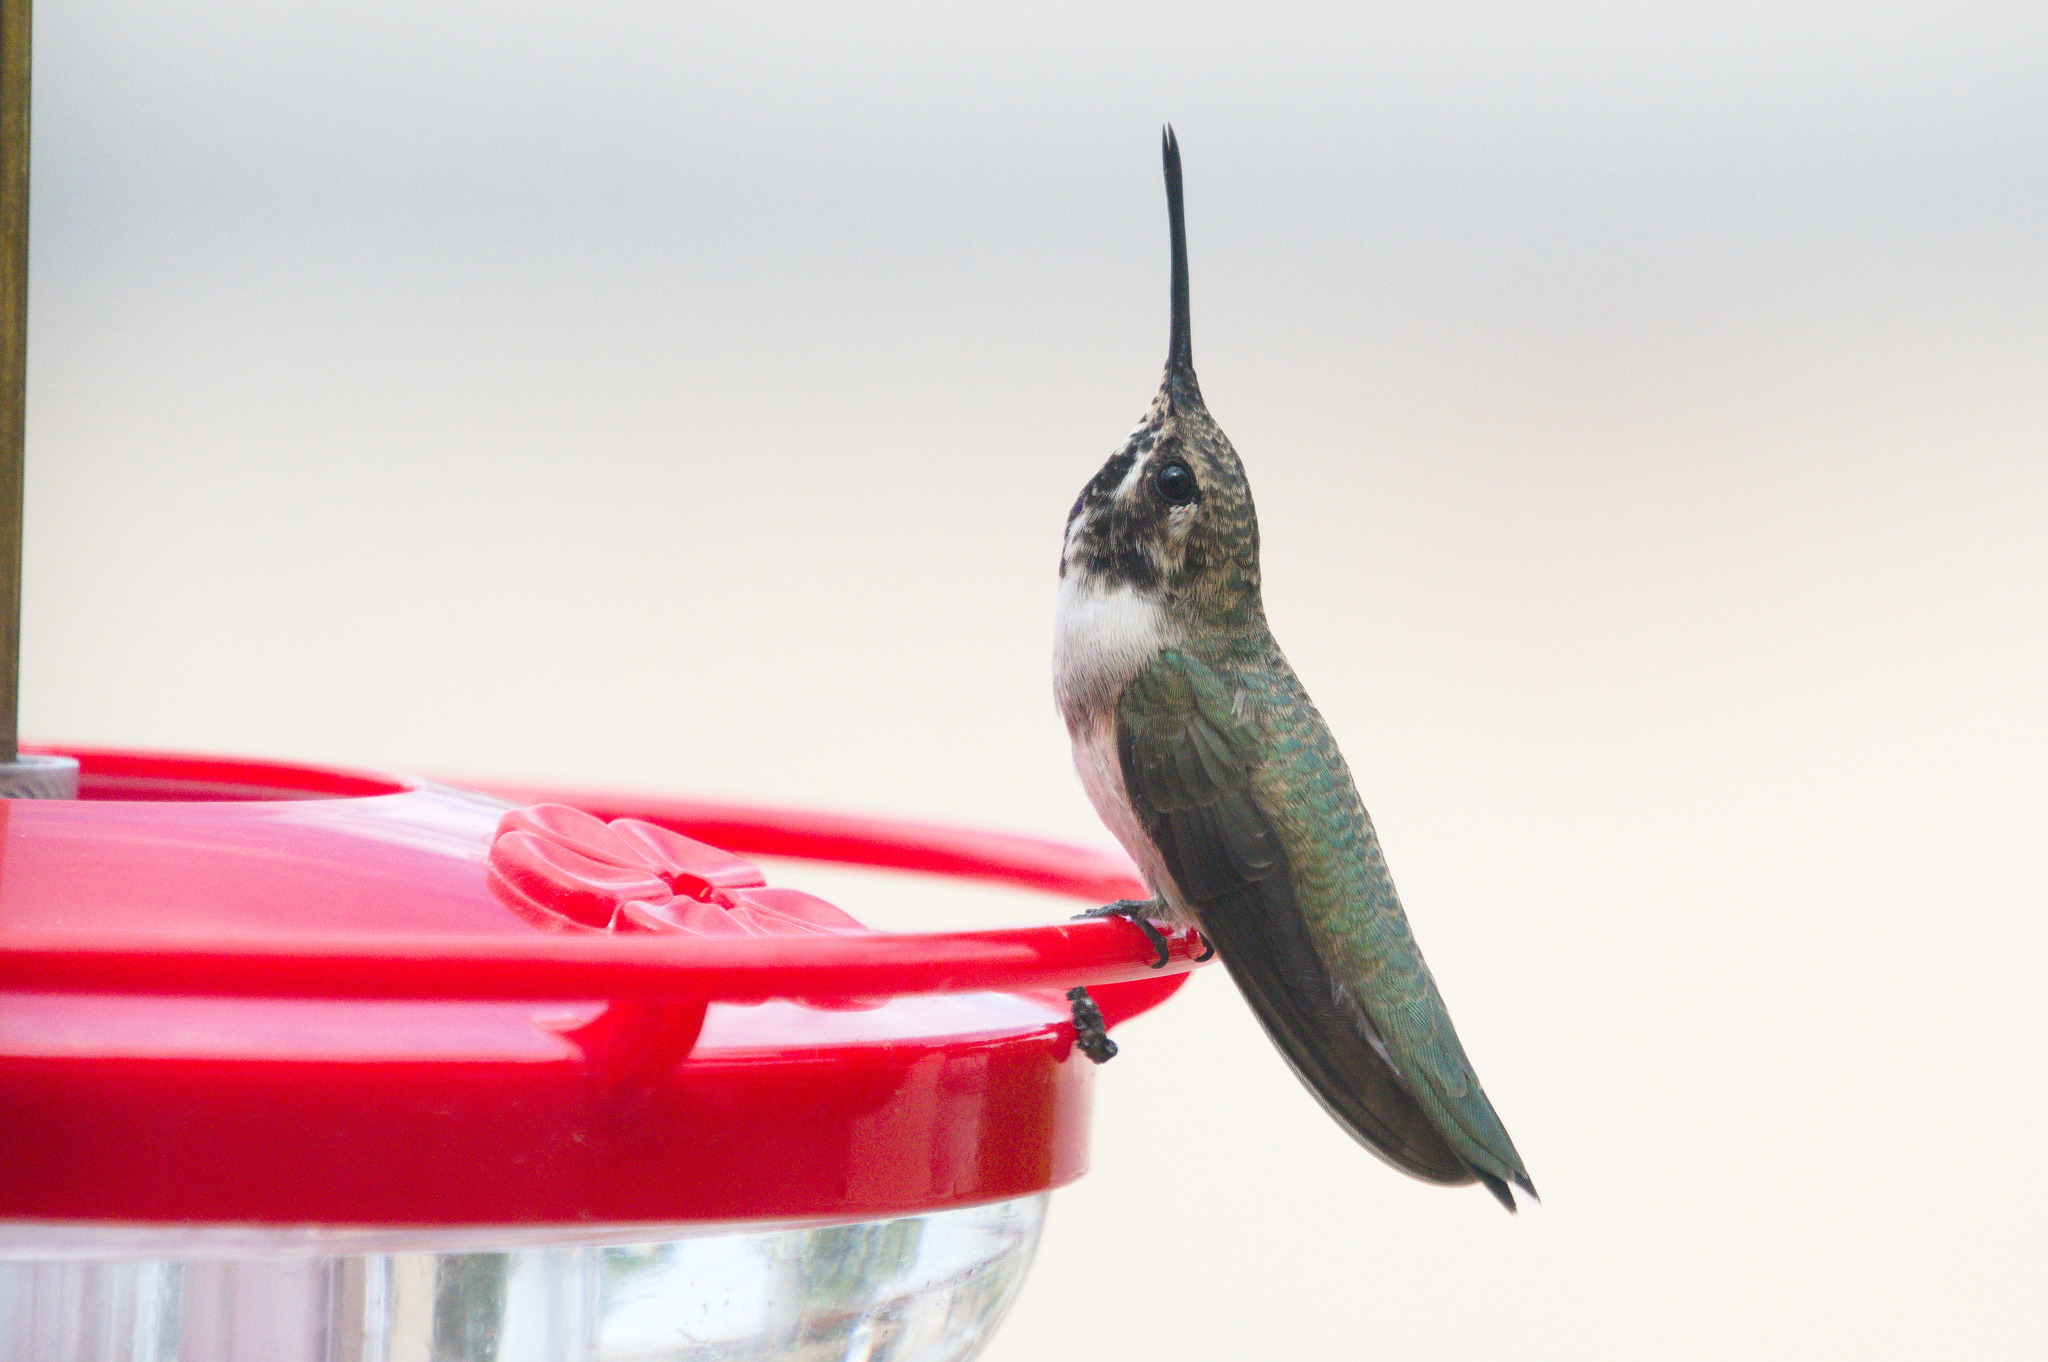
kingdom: Animalia
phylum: Chordata
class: Aves
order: Apodiformes
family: Trochilidae
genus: Archilochus
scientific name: Archilochus alexandri
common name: Black-chinned hummingbird
